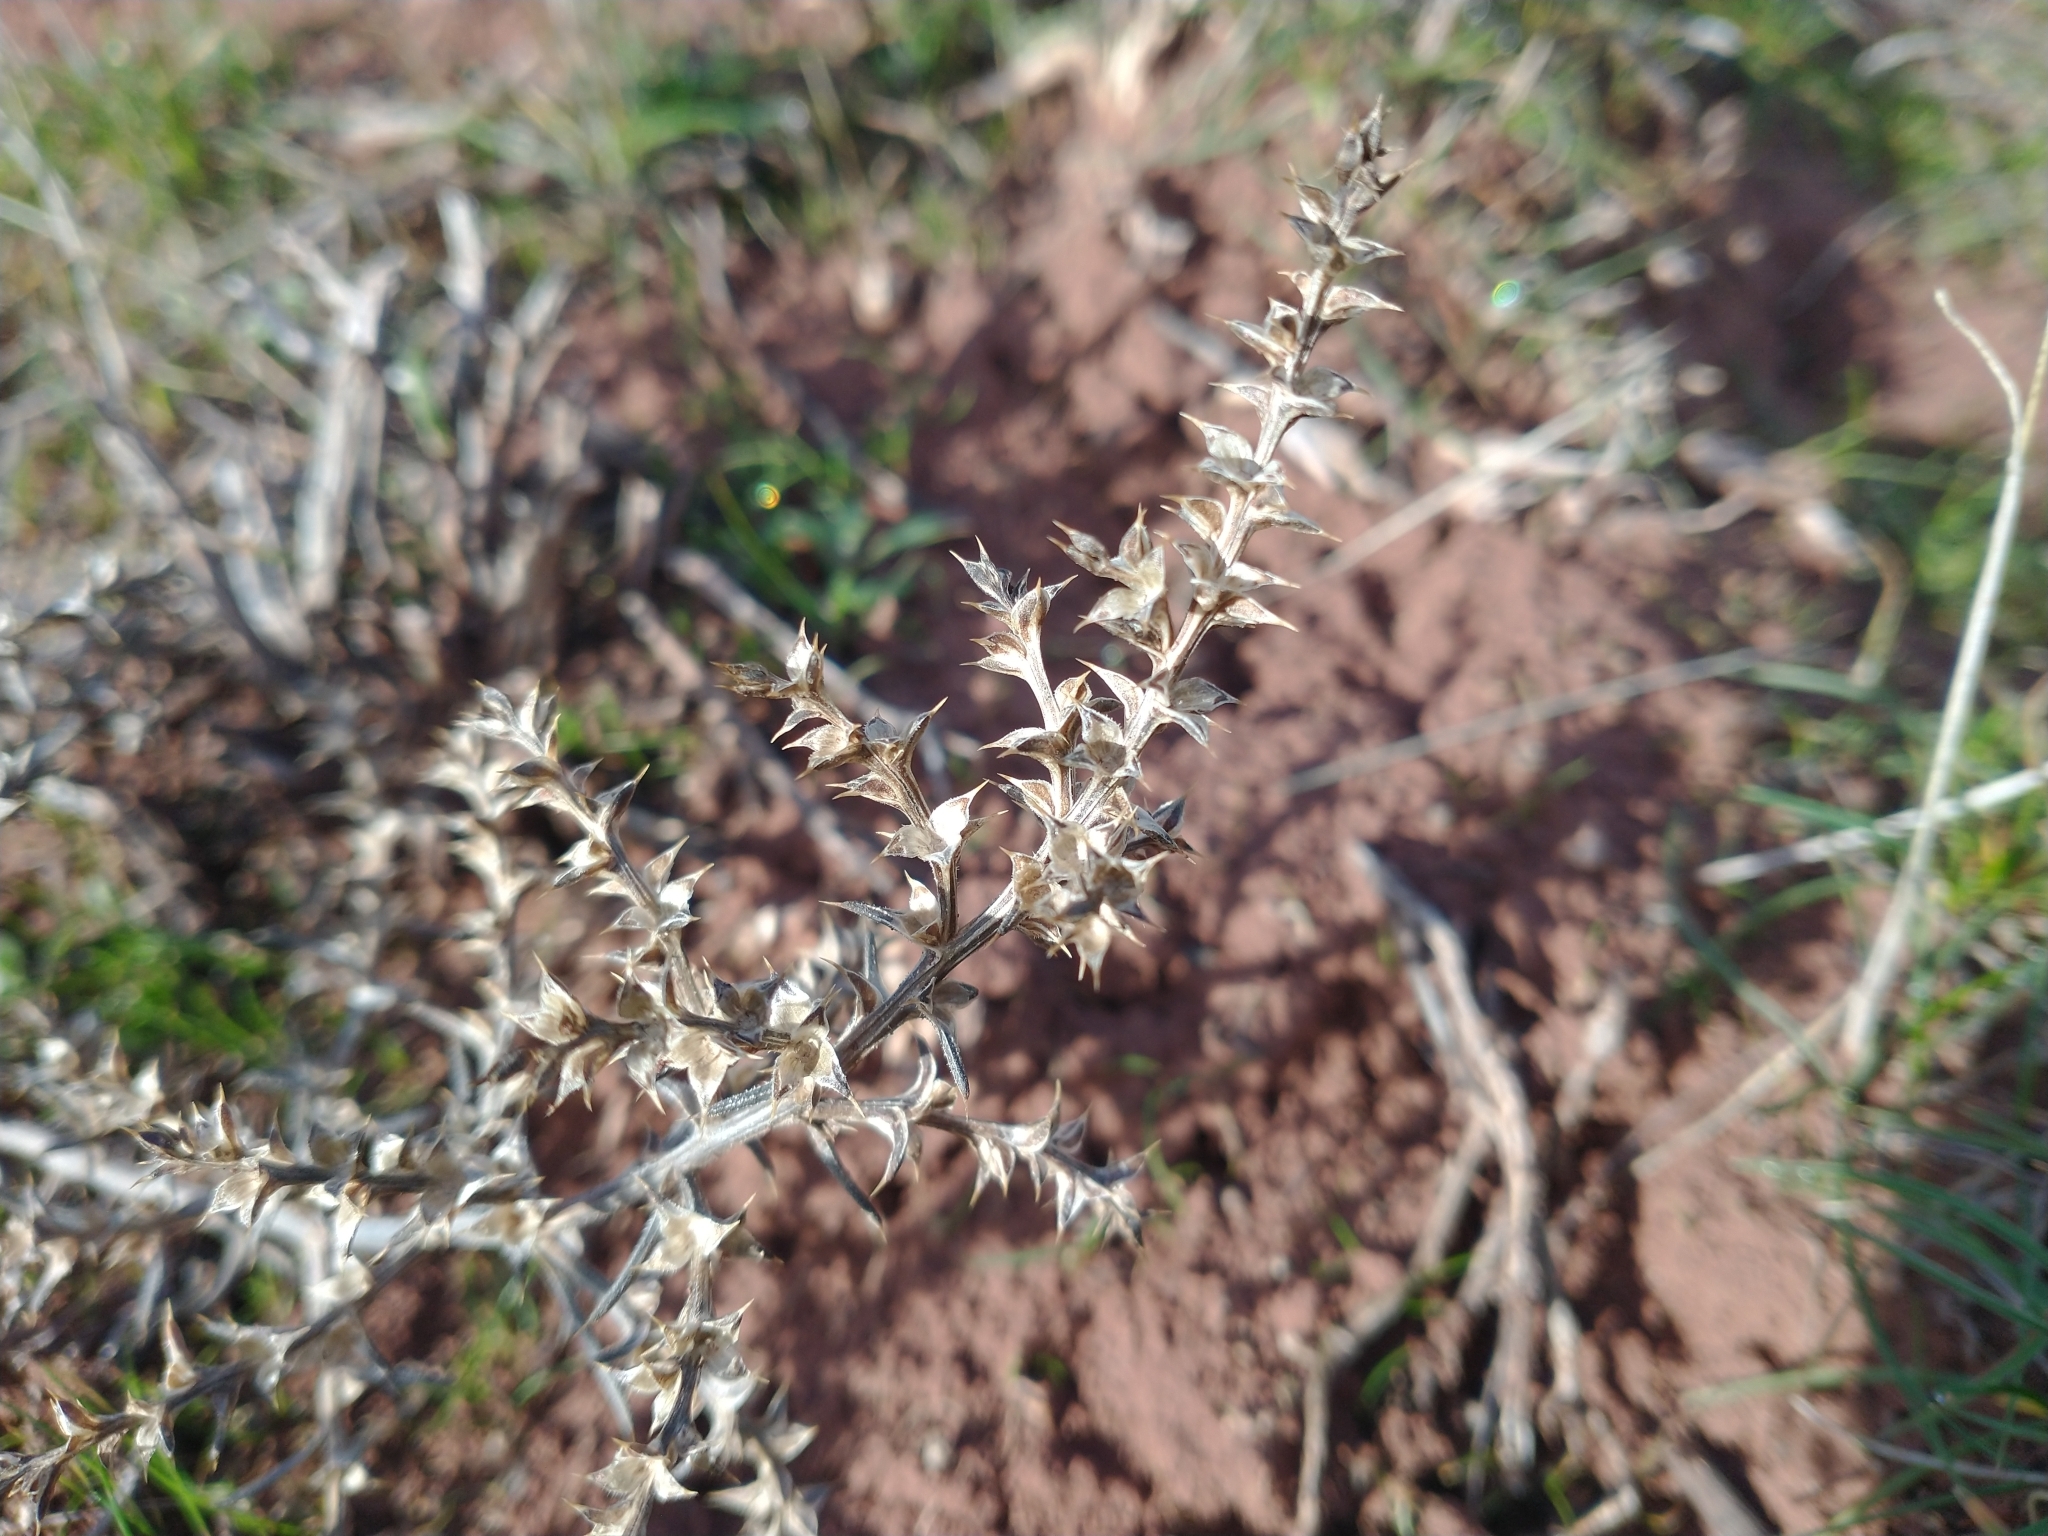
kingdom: Plantae
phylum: Tracheophyta
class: Magnoliopsida
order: Caryophyllales
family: Amaranthaceae
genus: Salsola
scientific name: Salsola tragus
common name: Prickly russian thistle
